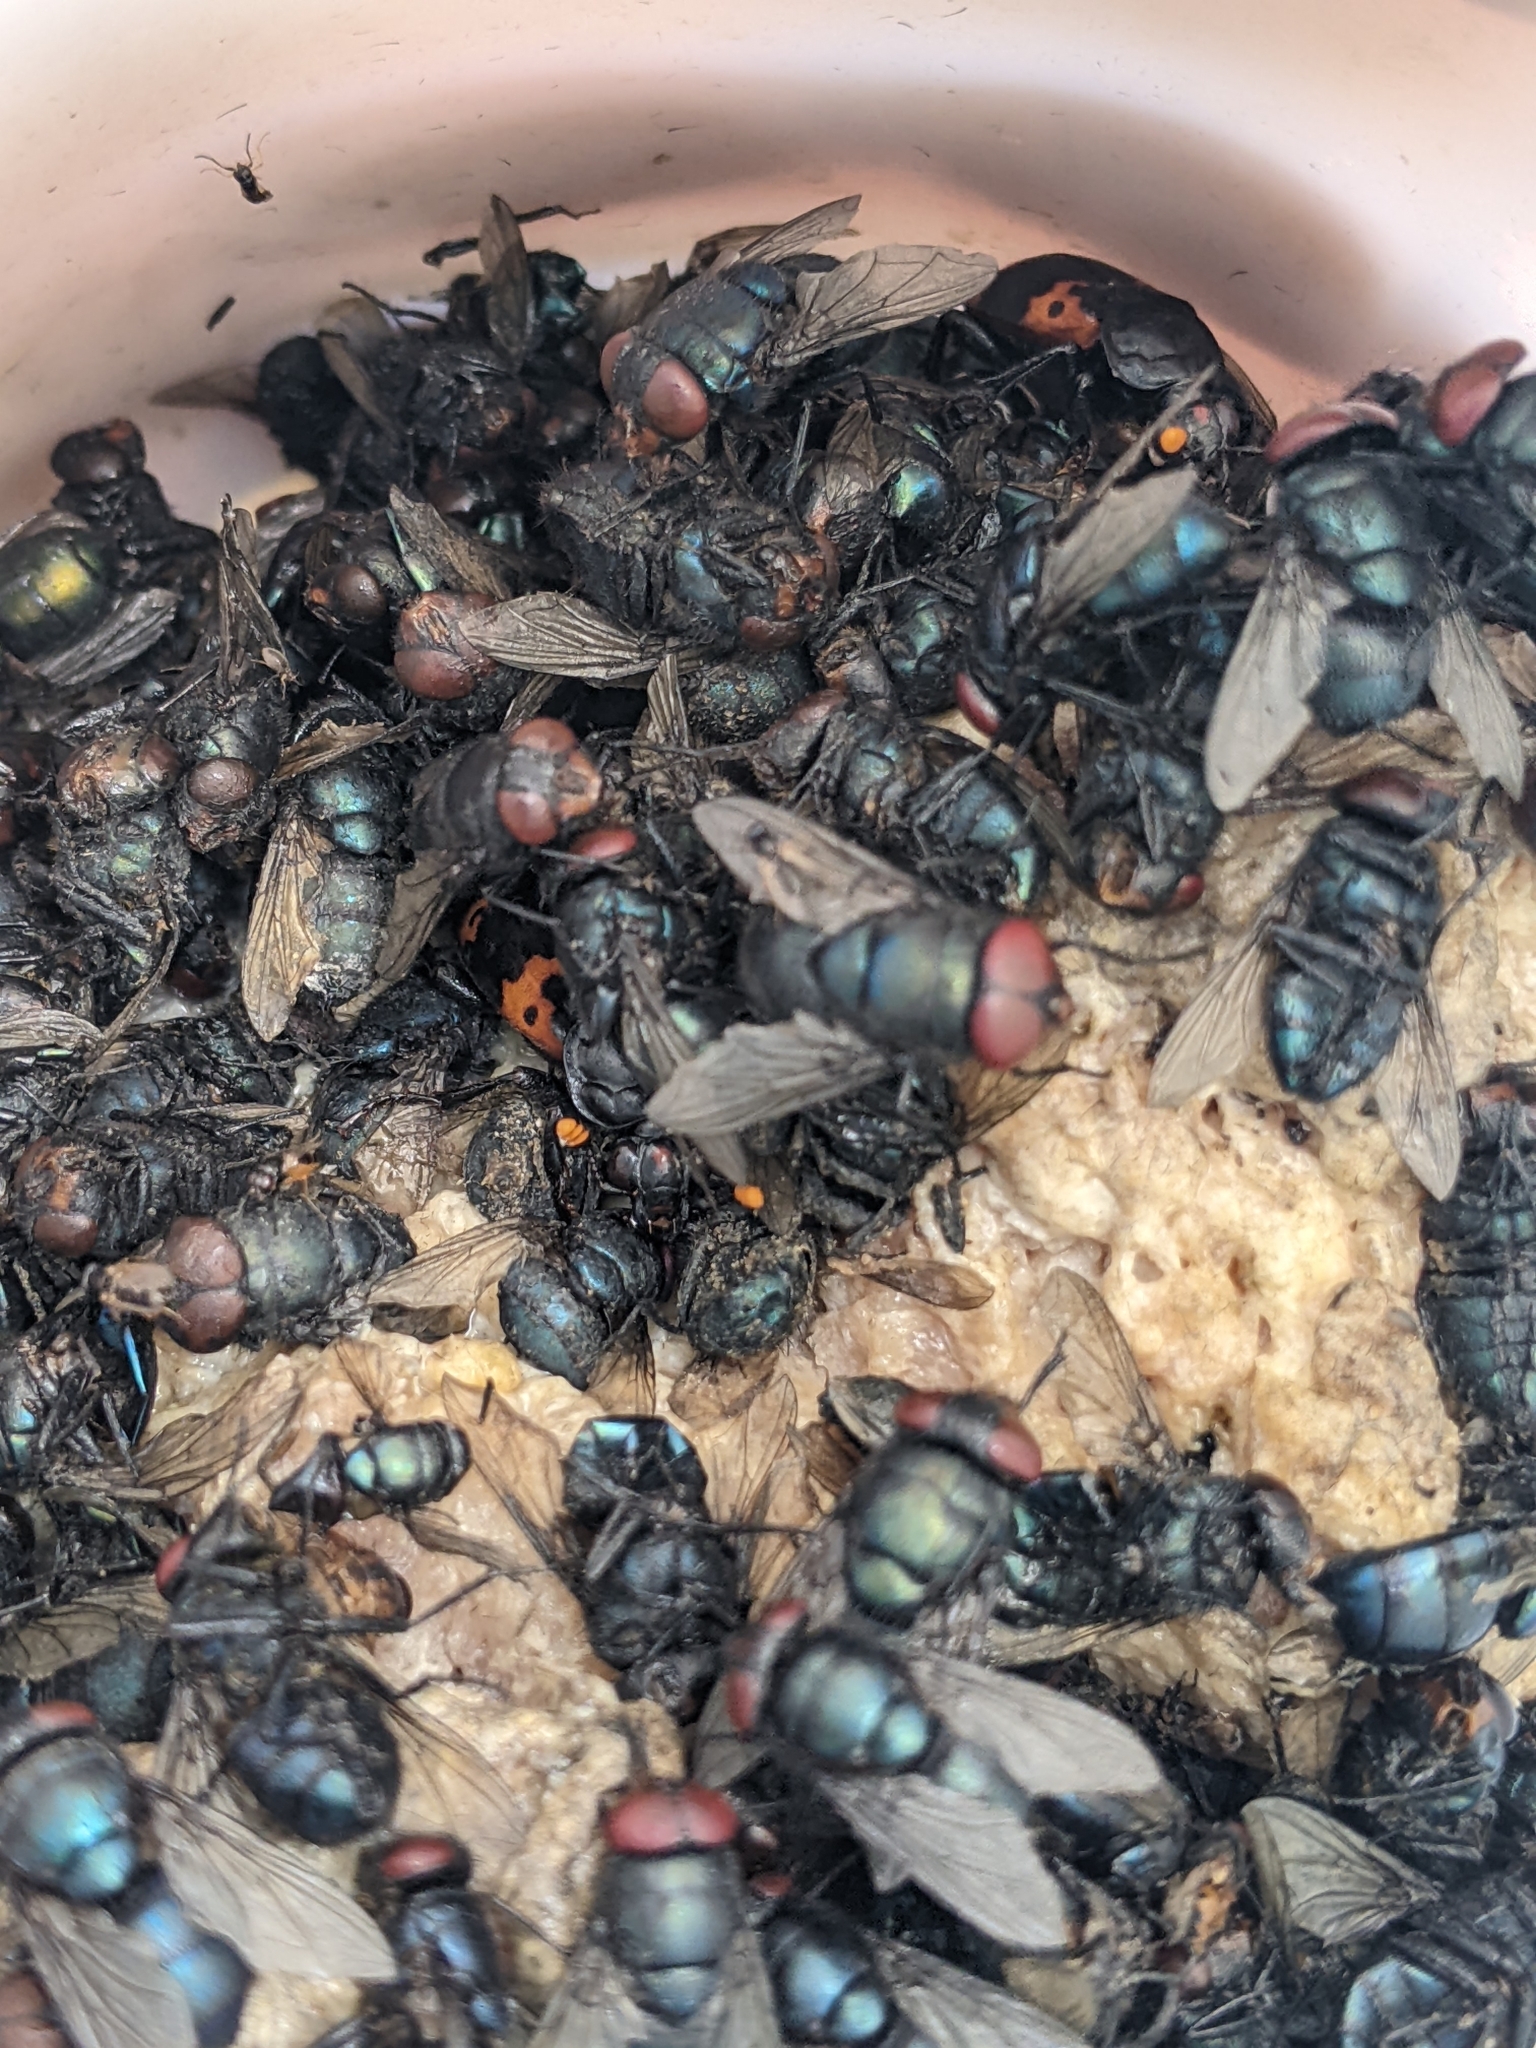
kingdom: Animalia
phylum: Arthropoda
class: Insecta
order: Coleoptera
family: Staphylinidae
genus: Nicrophorus
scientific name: Nicrophorus nepalensis
